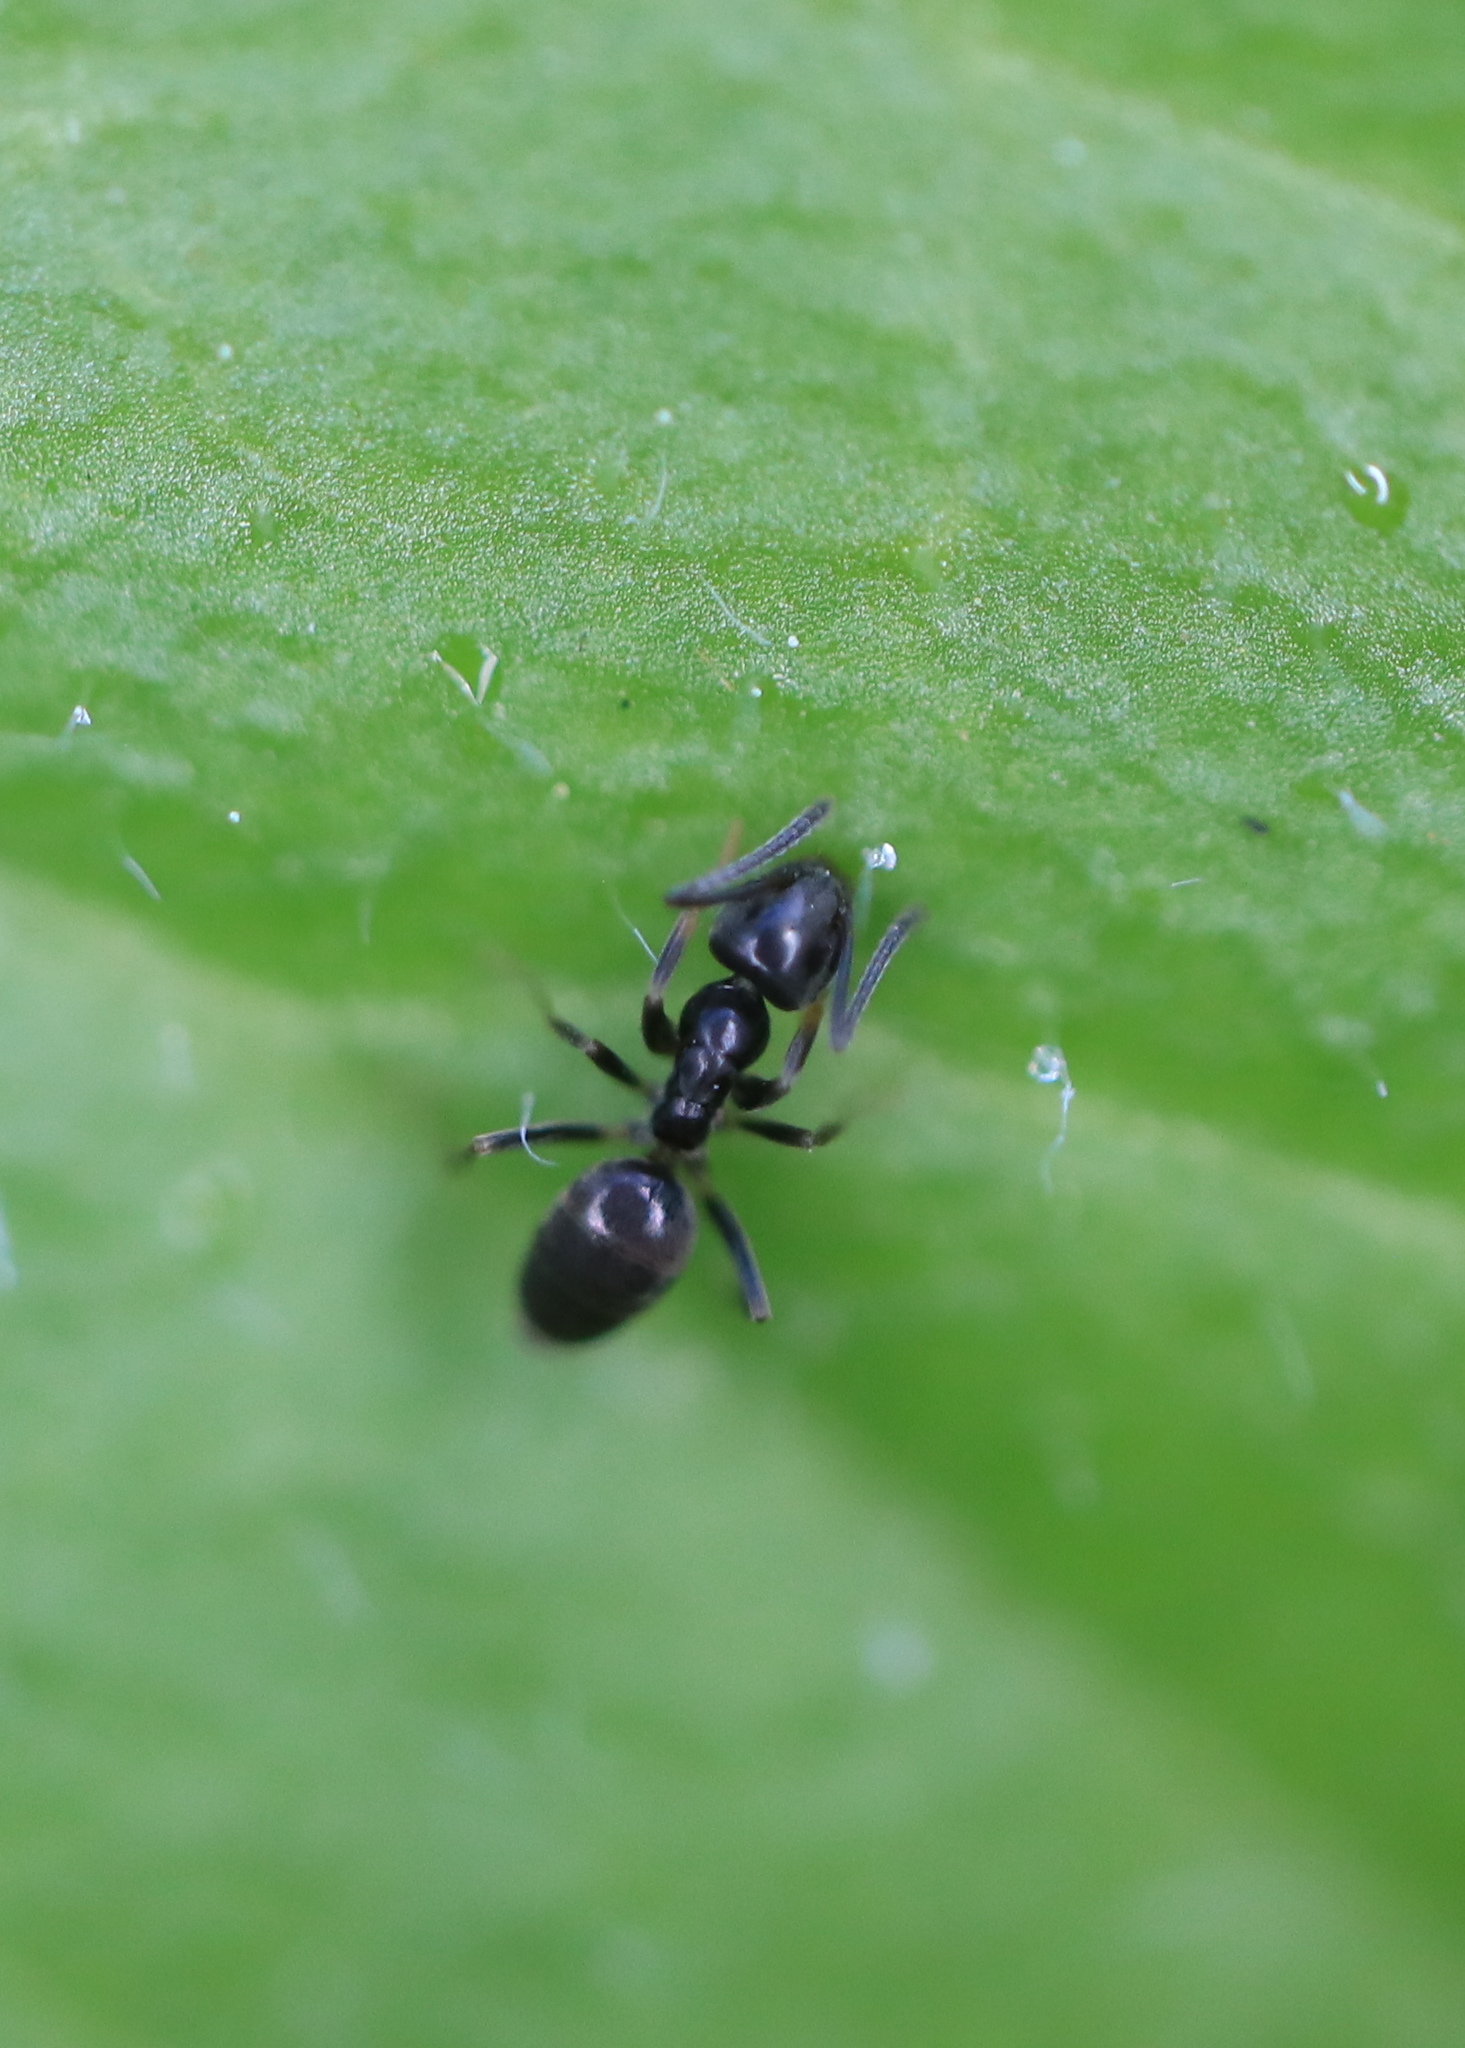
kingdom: Animalia
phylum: Arthropoda
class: Insecta
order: Hymenoptera
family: Formicidae
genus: Tapinoma
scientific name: Tapinoma sessile
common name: Odorous house ant
